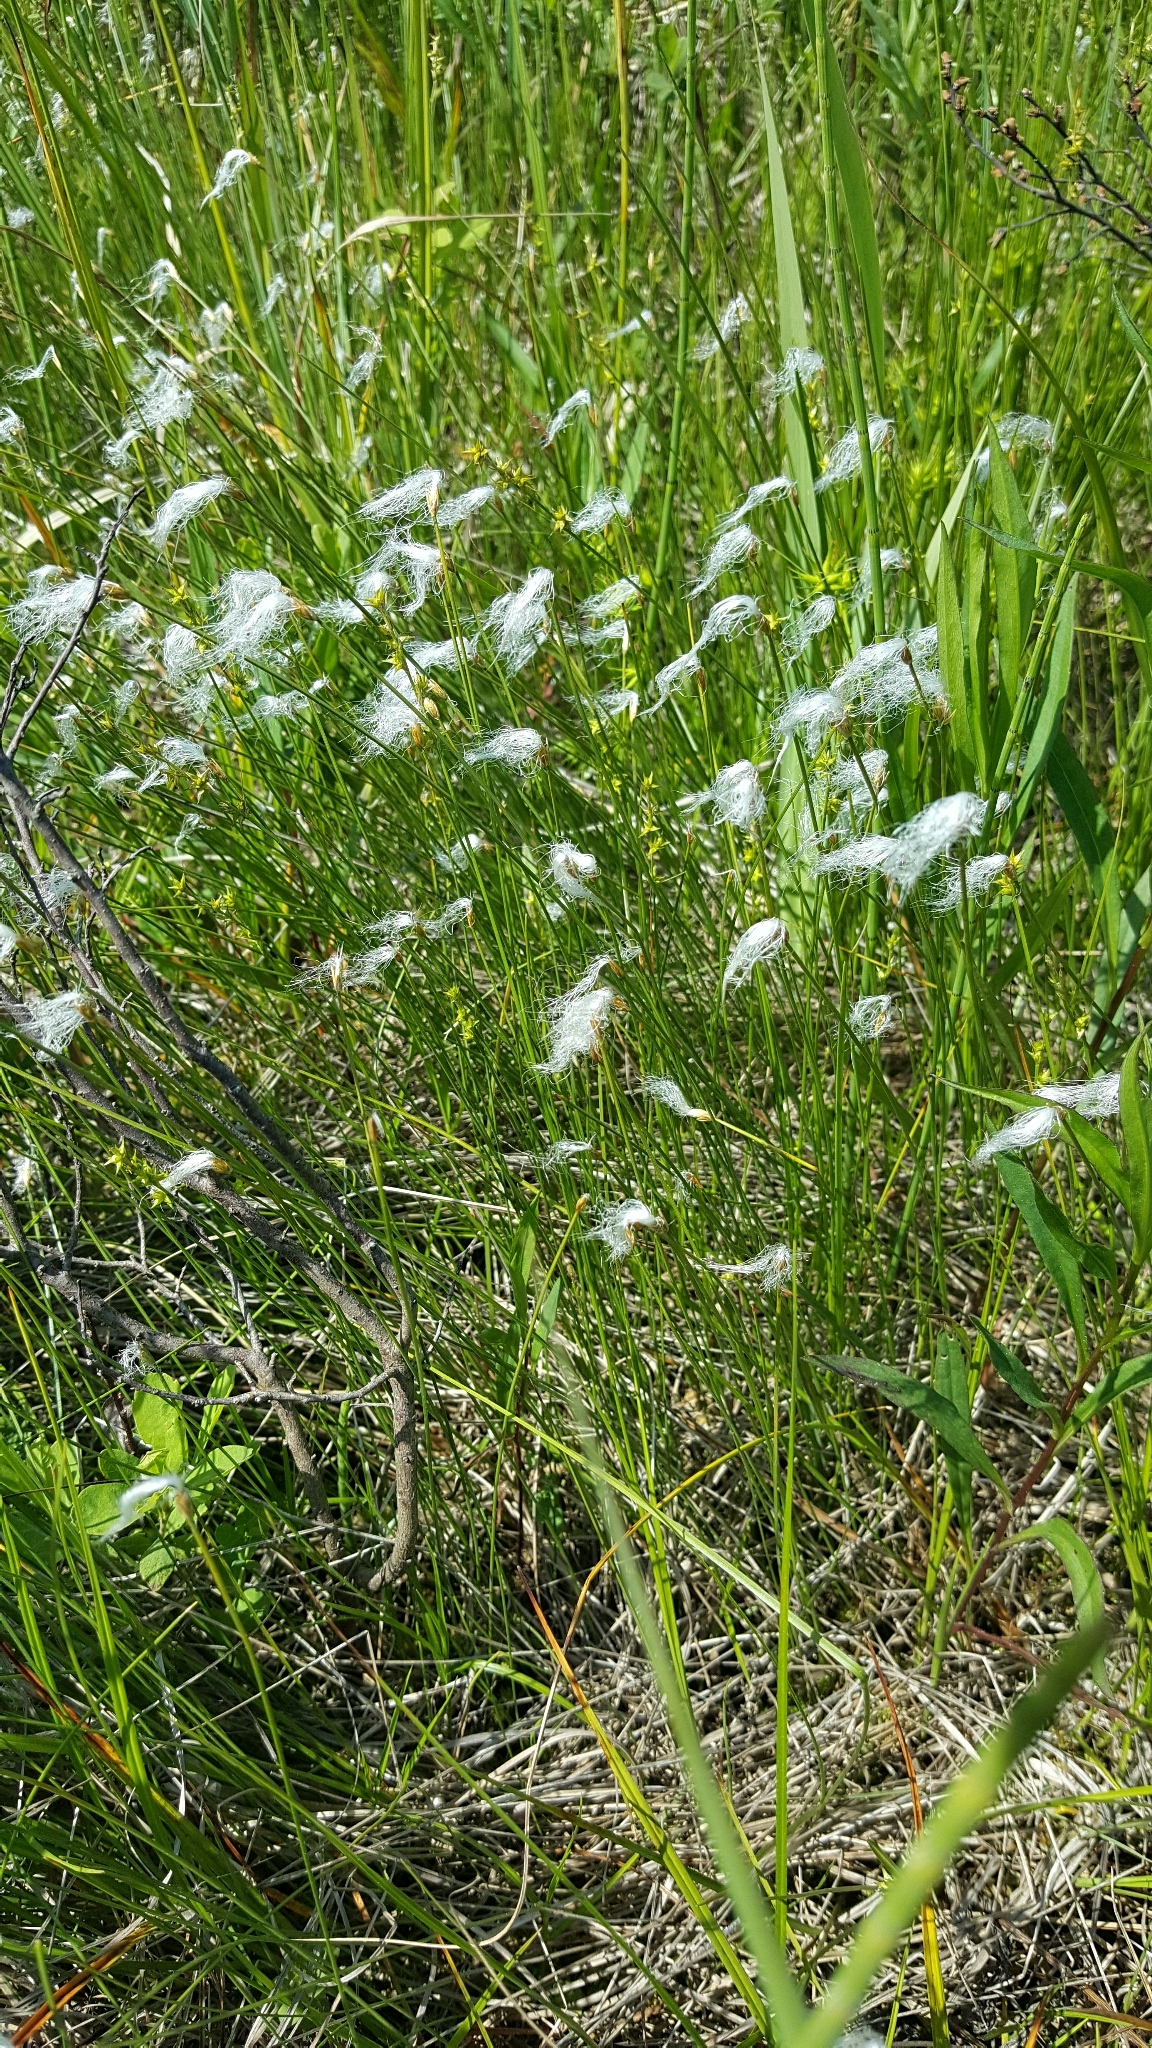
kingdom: Plantae
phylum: Tracheophyta
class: Liliopsida
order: Poales
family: Cyperaceae
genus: Trichophorum
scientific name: Trichophorum alpinum
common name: Alpine bulrush
